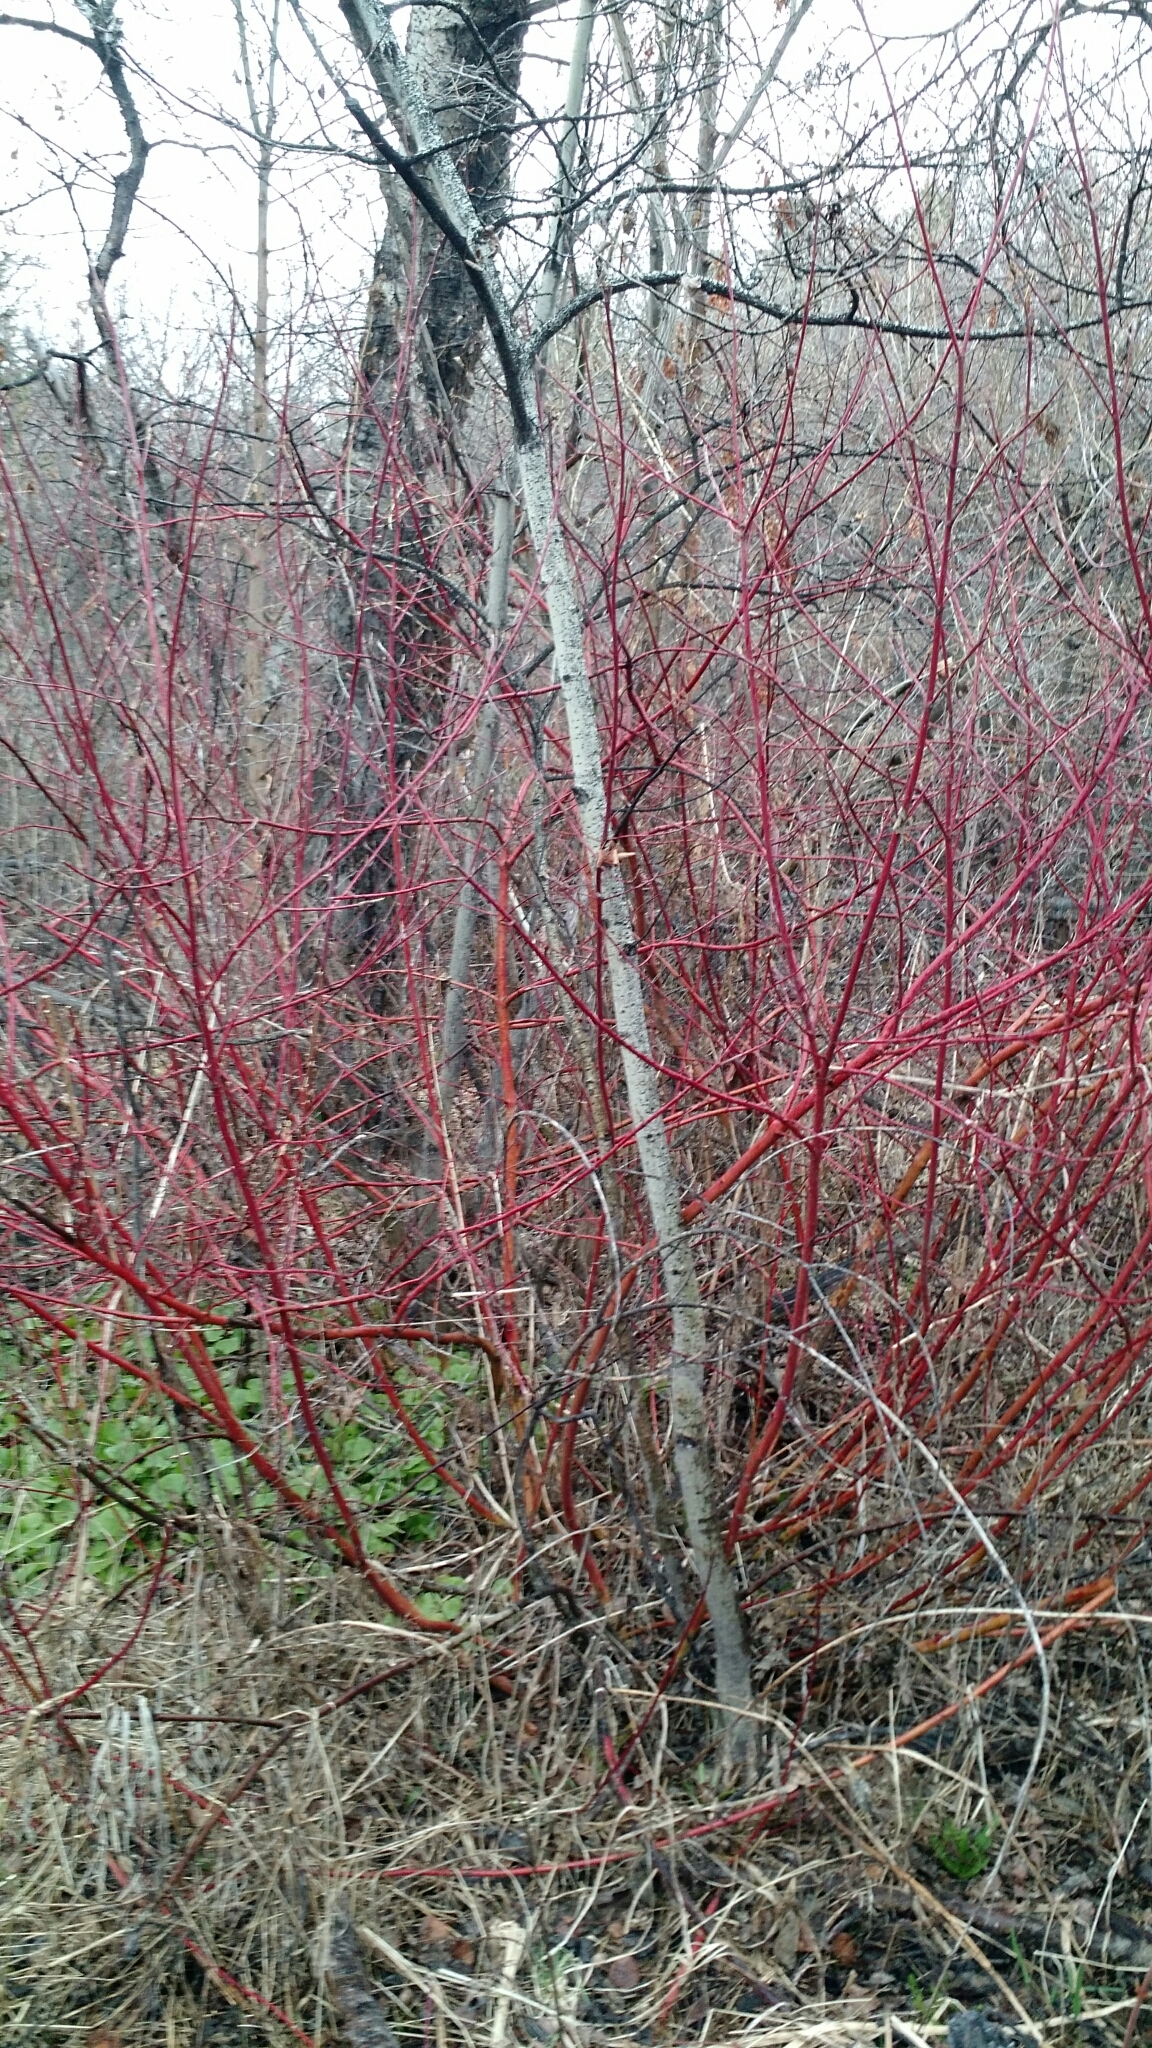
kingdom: Plantae
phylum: Tracheophyta
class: Magnoliopsida
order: Cornales
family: Cornaceae
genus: Cornus
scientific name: Cornus sericea
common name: Red-osier dogwood
